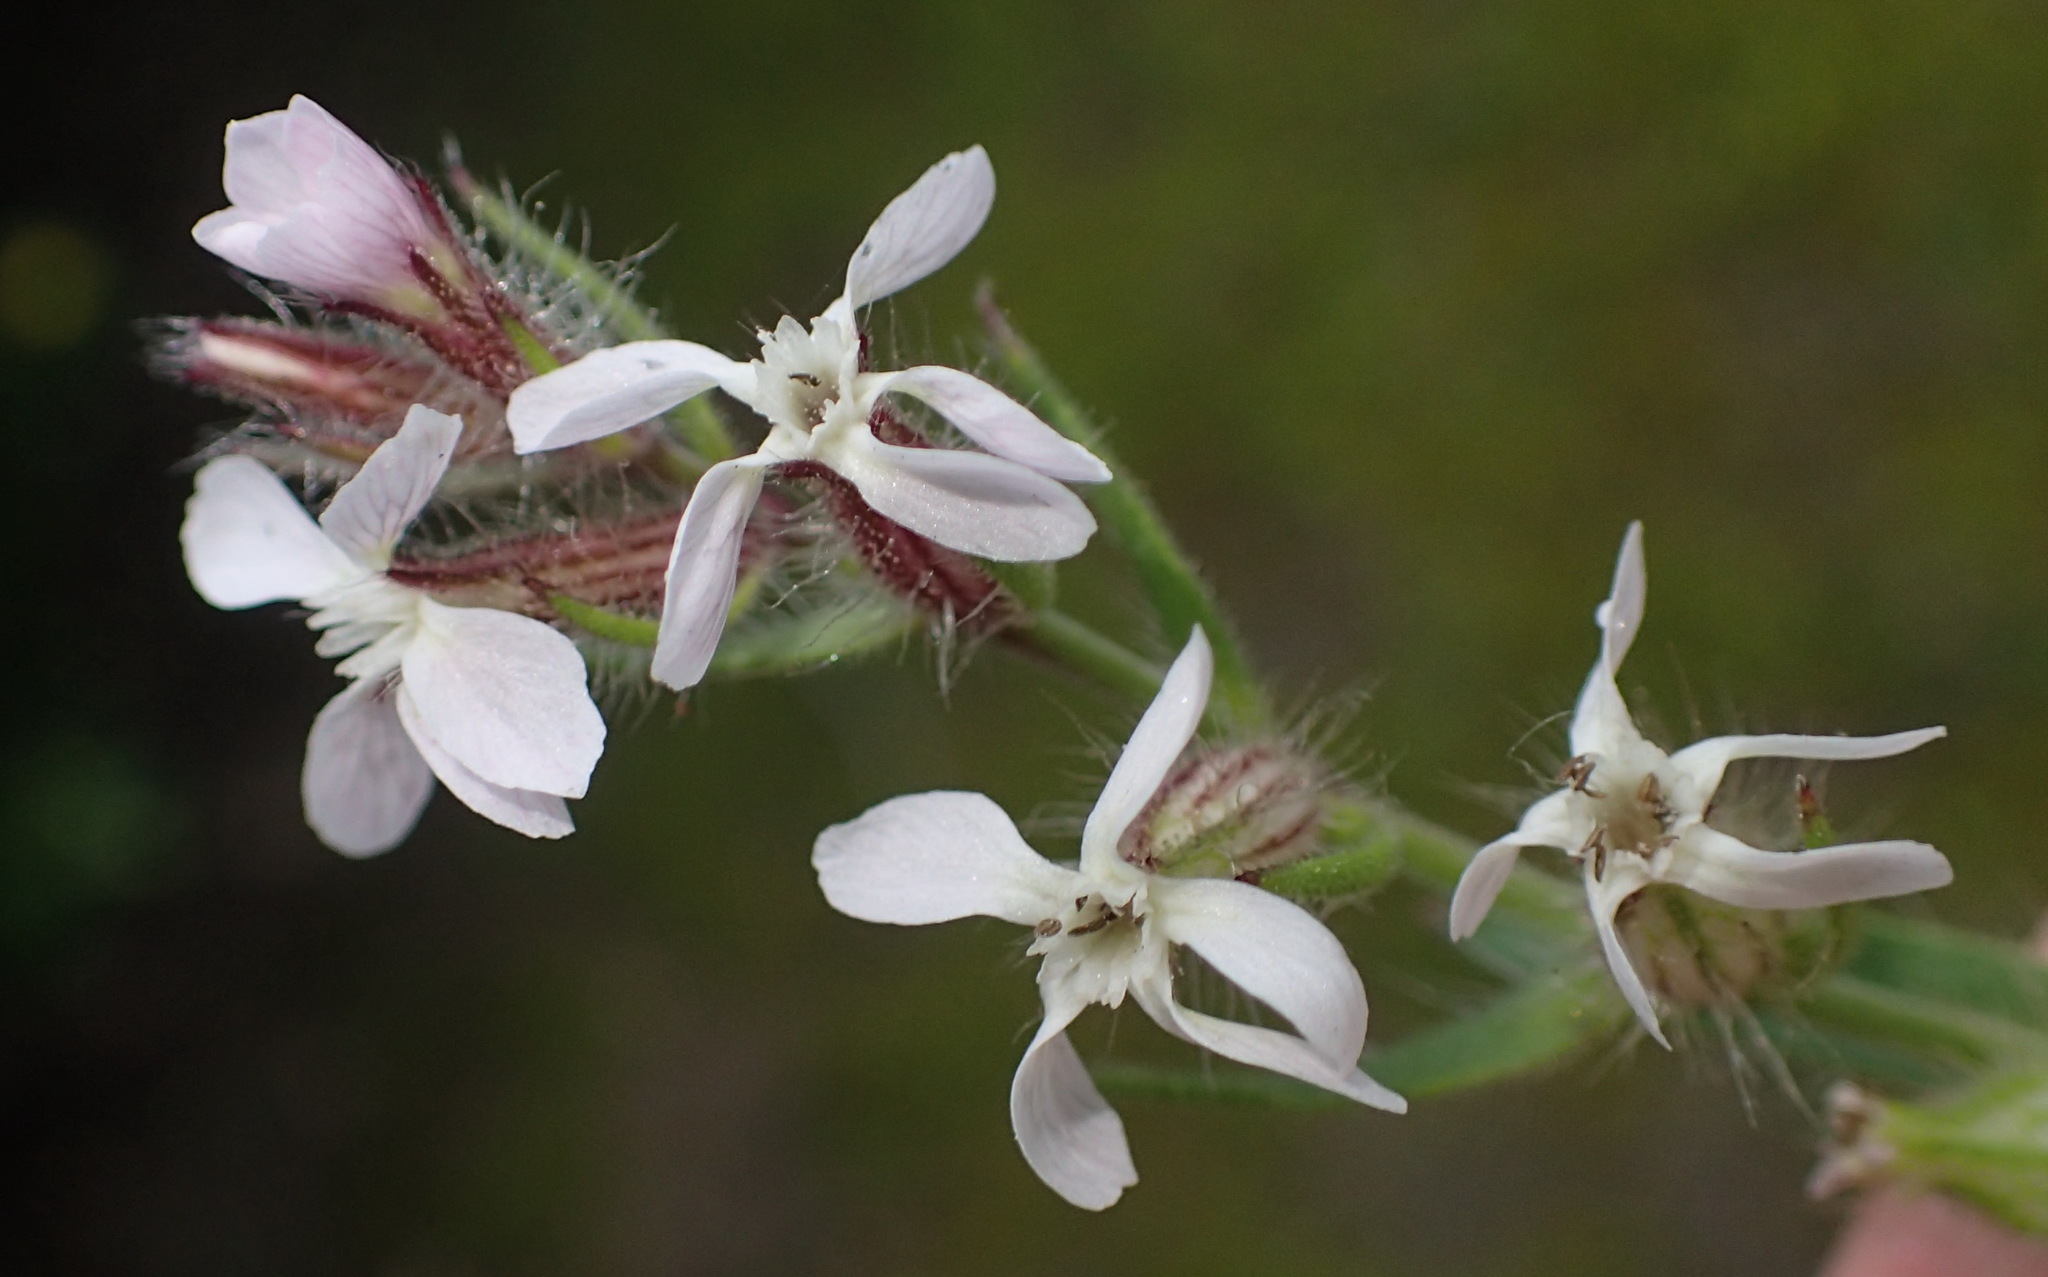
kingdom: Plantae
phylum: Tracheophyta
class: Magnoliopsida
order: Caryophyllales
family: Caryophyllaceae
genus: Silene
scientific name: Silene gallica
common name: Small-flowered catchfly
